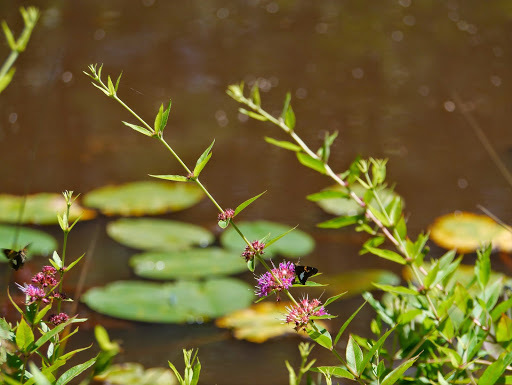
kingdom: Plantae
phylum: Tracheophyta
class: Magnoliopsida
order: Myrtales
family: Lythraceae
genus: Decodon
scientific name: Decodon verticillatus
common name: Hairy swamp loosestrife
